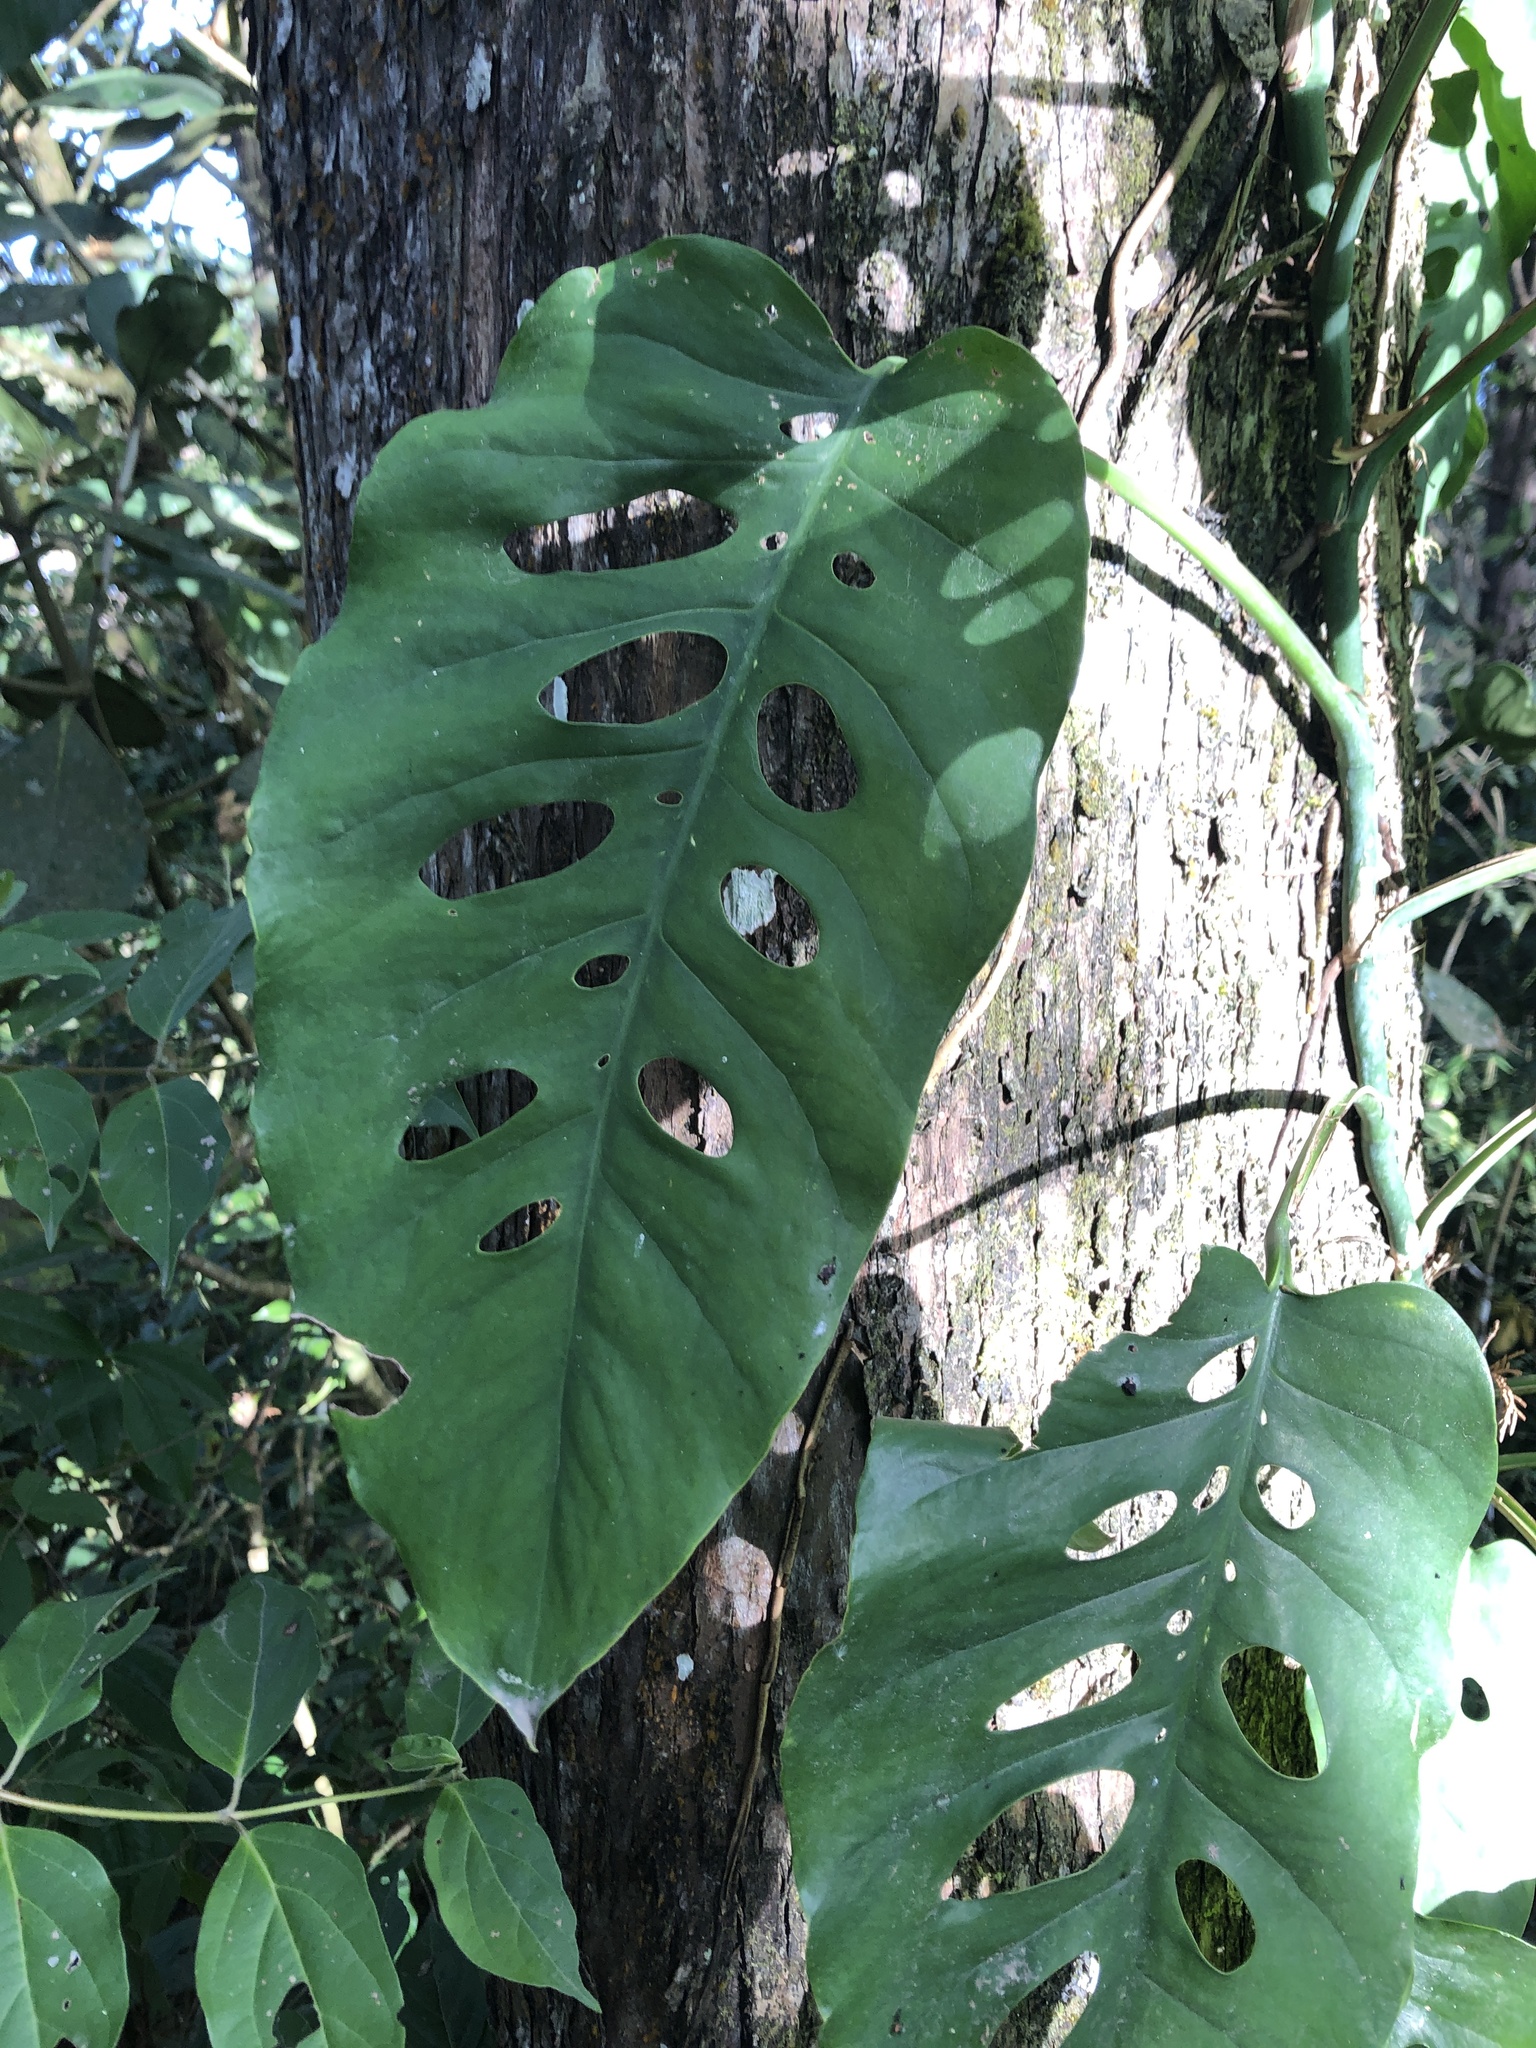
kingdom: Plantae
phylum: Tracheophyta
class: Liliopsida
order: Alismatales
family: Araceae
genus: Monstera
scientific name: Monstera siltepecana
